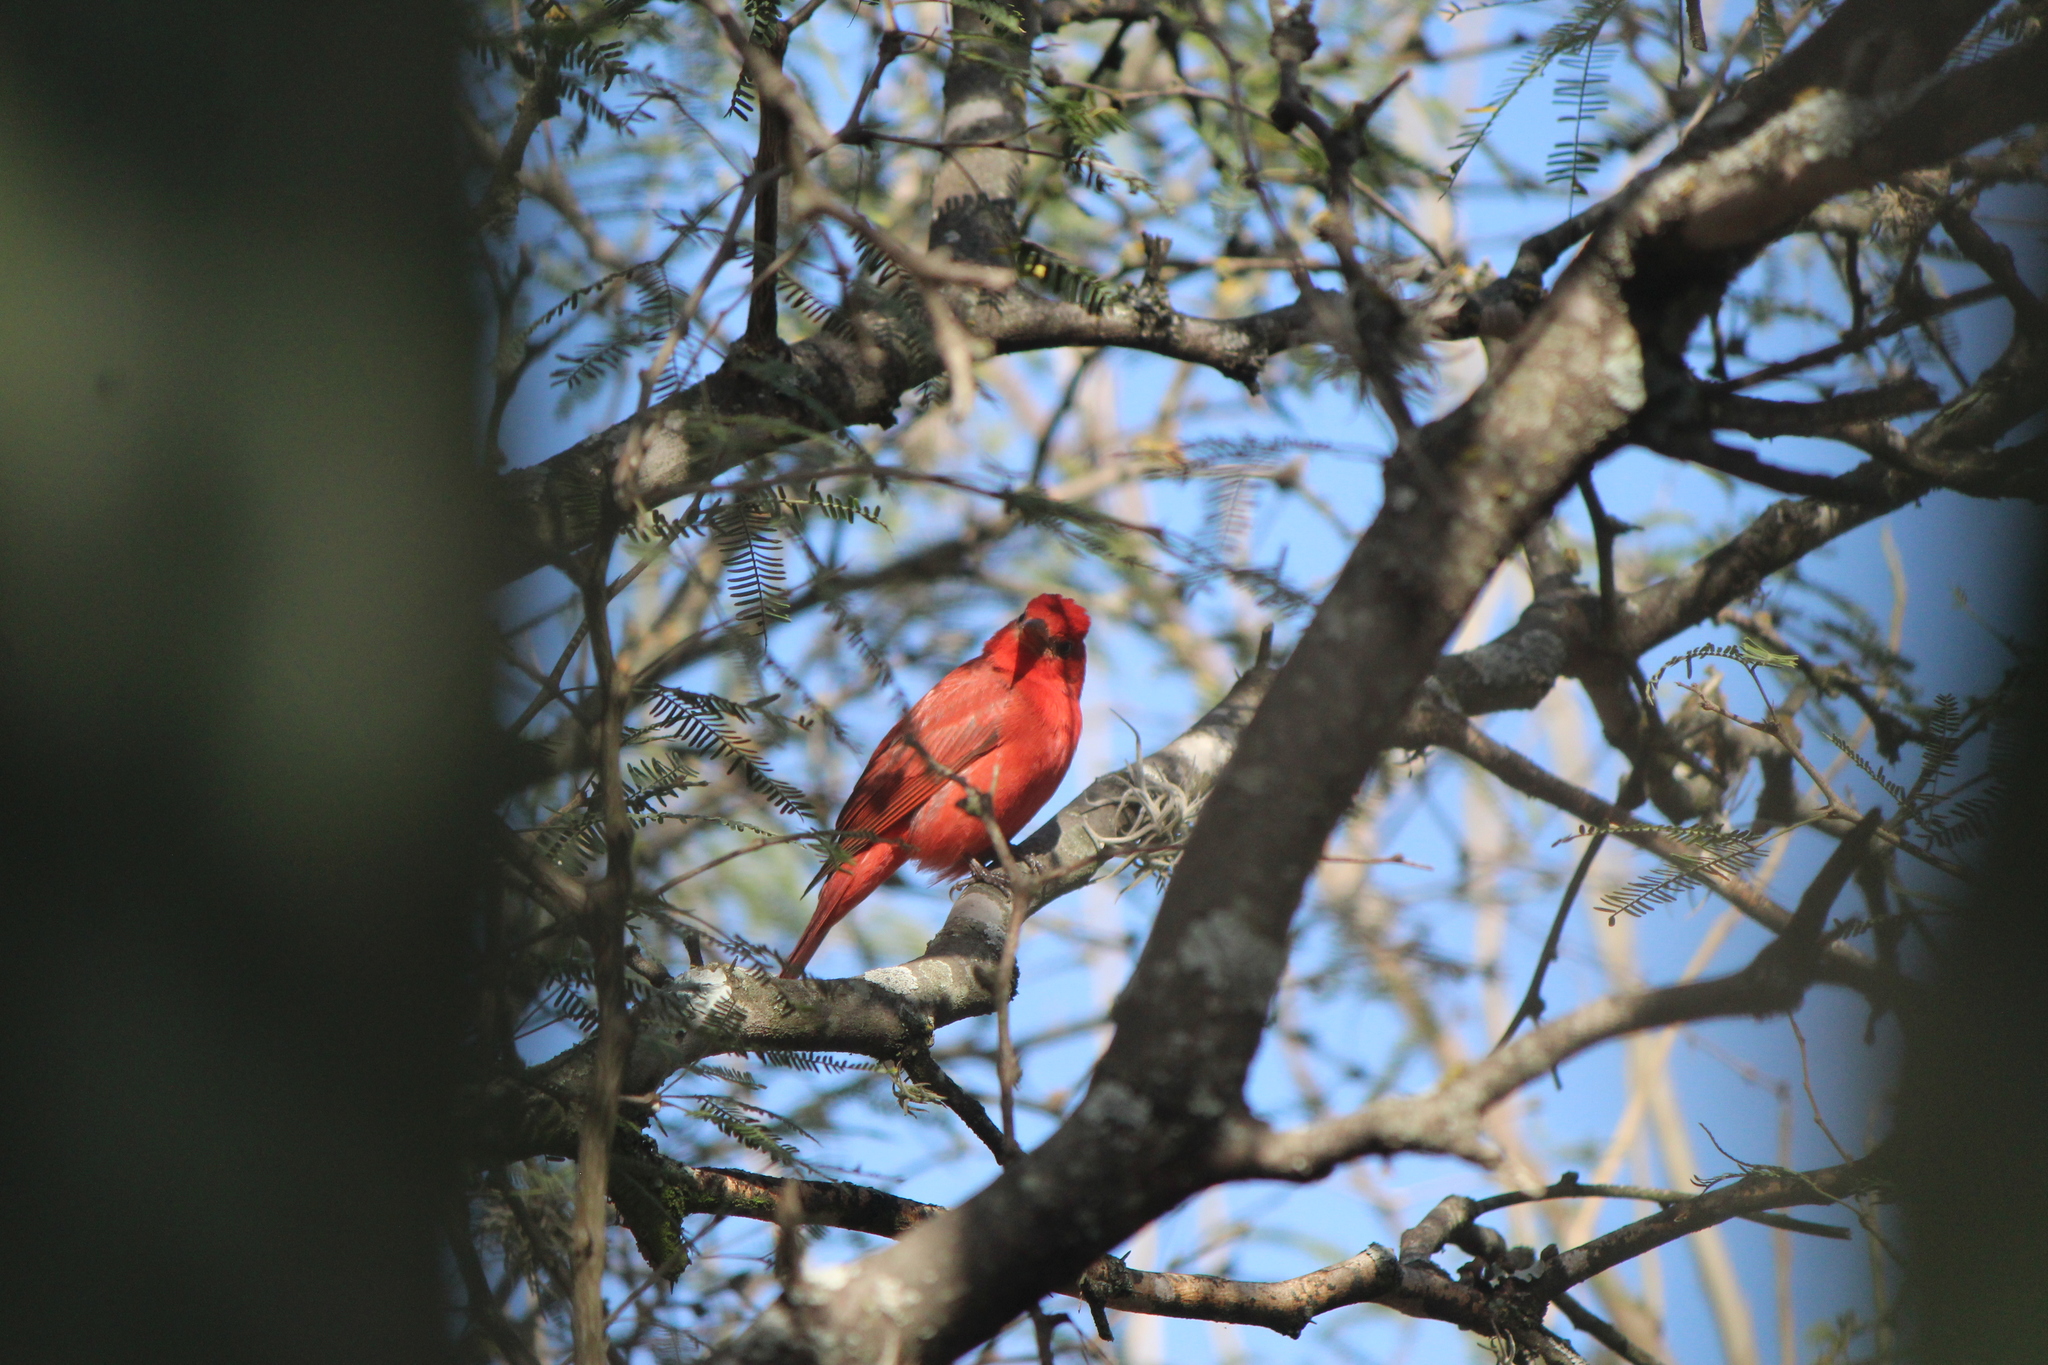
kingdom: Animalia
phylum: Chordata
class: Aves
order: Passeriformes
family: Cardinalidae
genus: Piranga
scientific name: Piranga rubra
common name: Summer tanager
